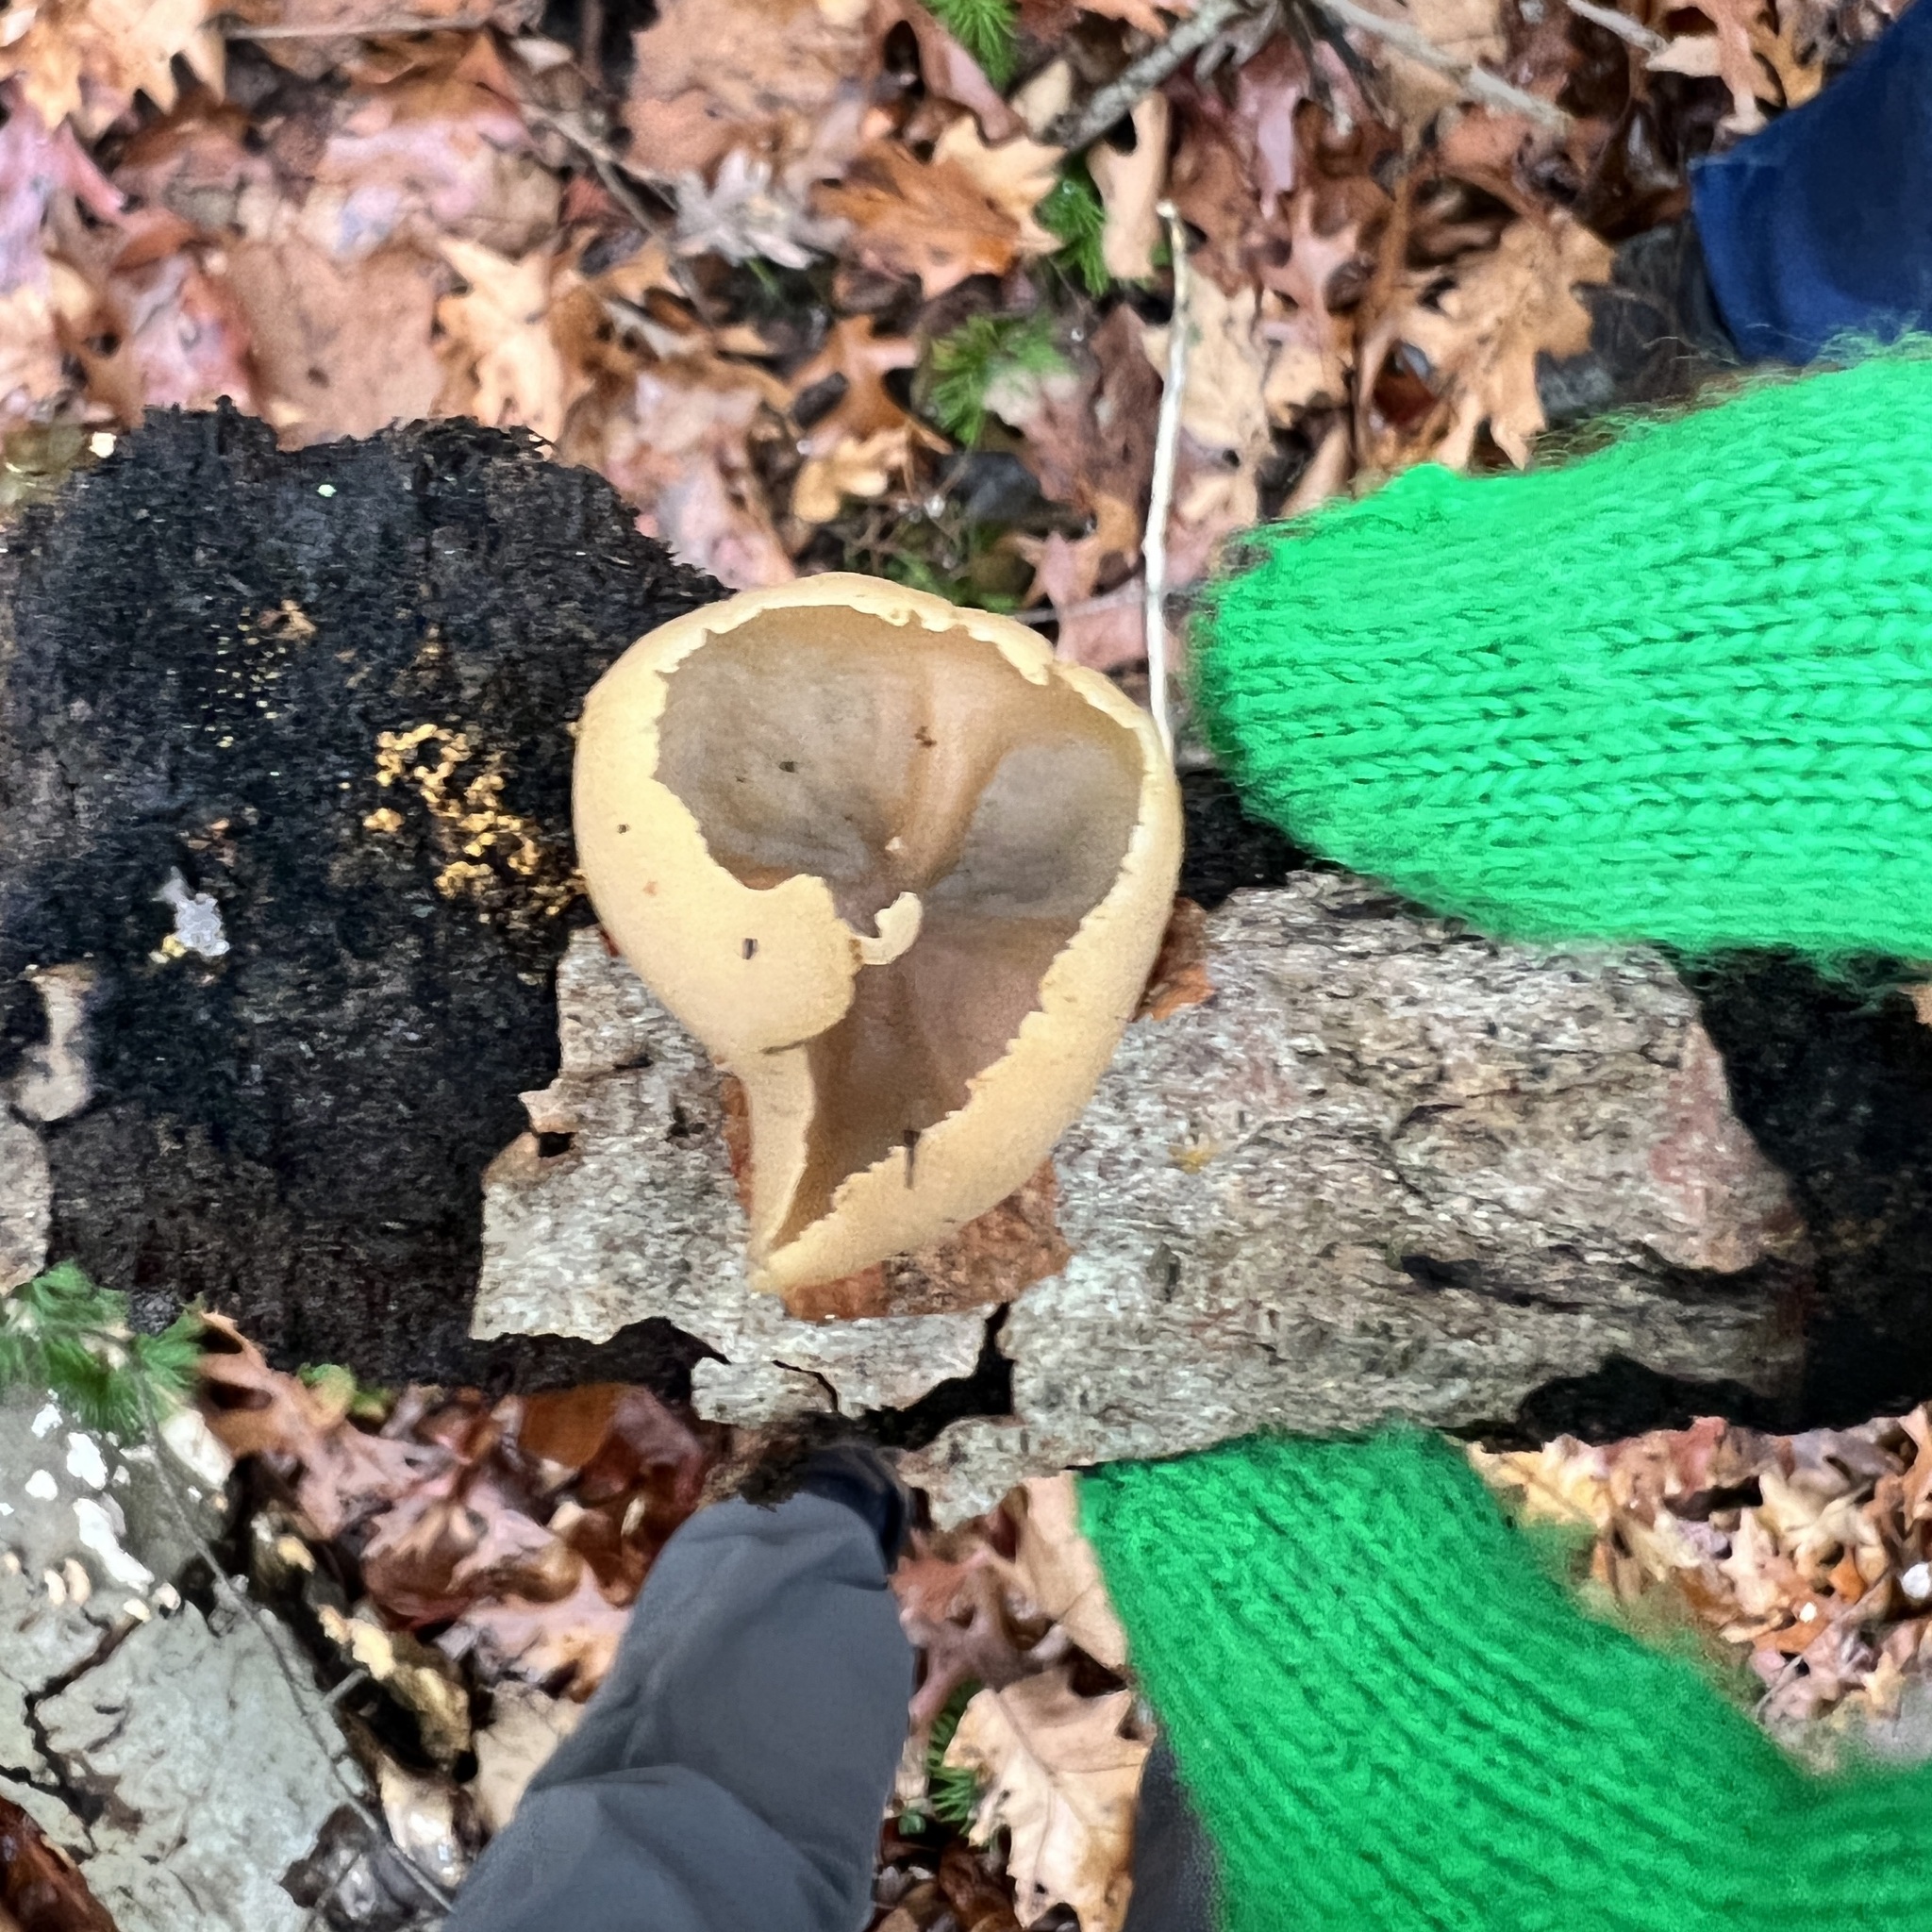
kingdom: Fungi
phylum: Ascomycota
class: Pezizomycetes
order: Pezizales
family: Pezizaceae
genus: Peziza
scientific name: Peziza varia
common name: Layered cup
